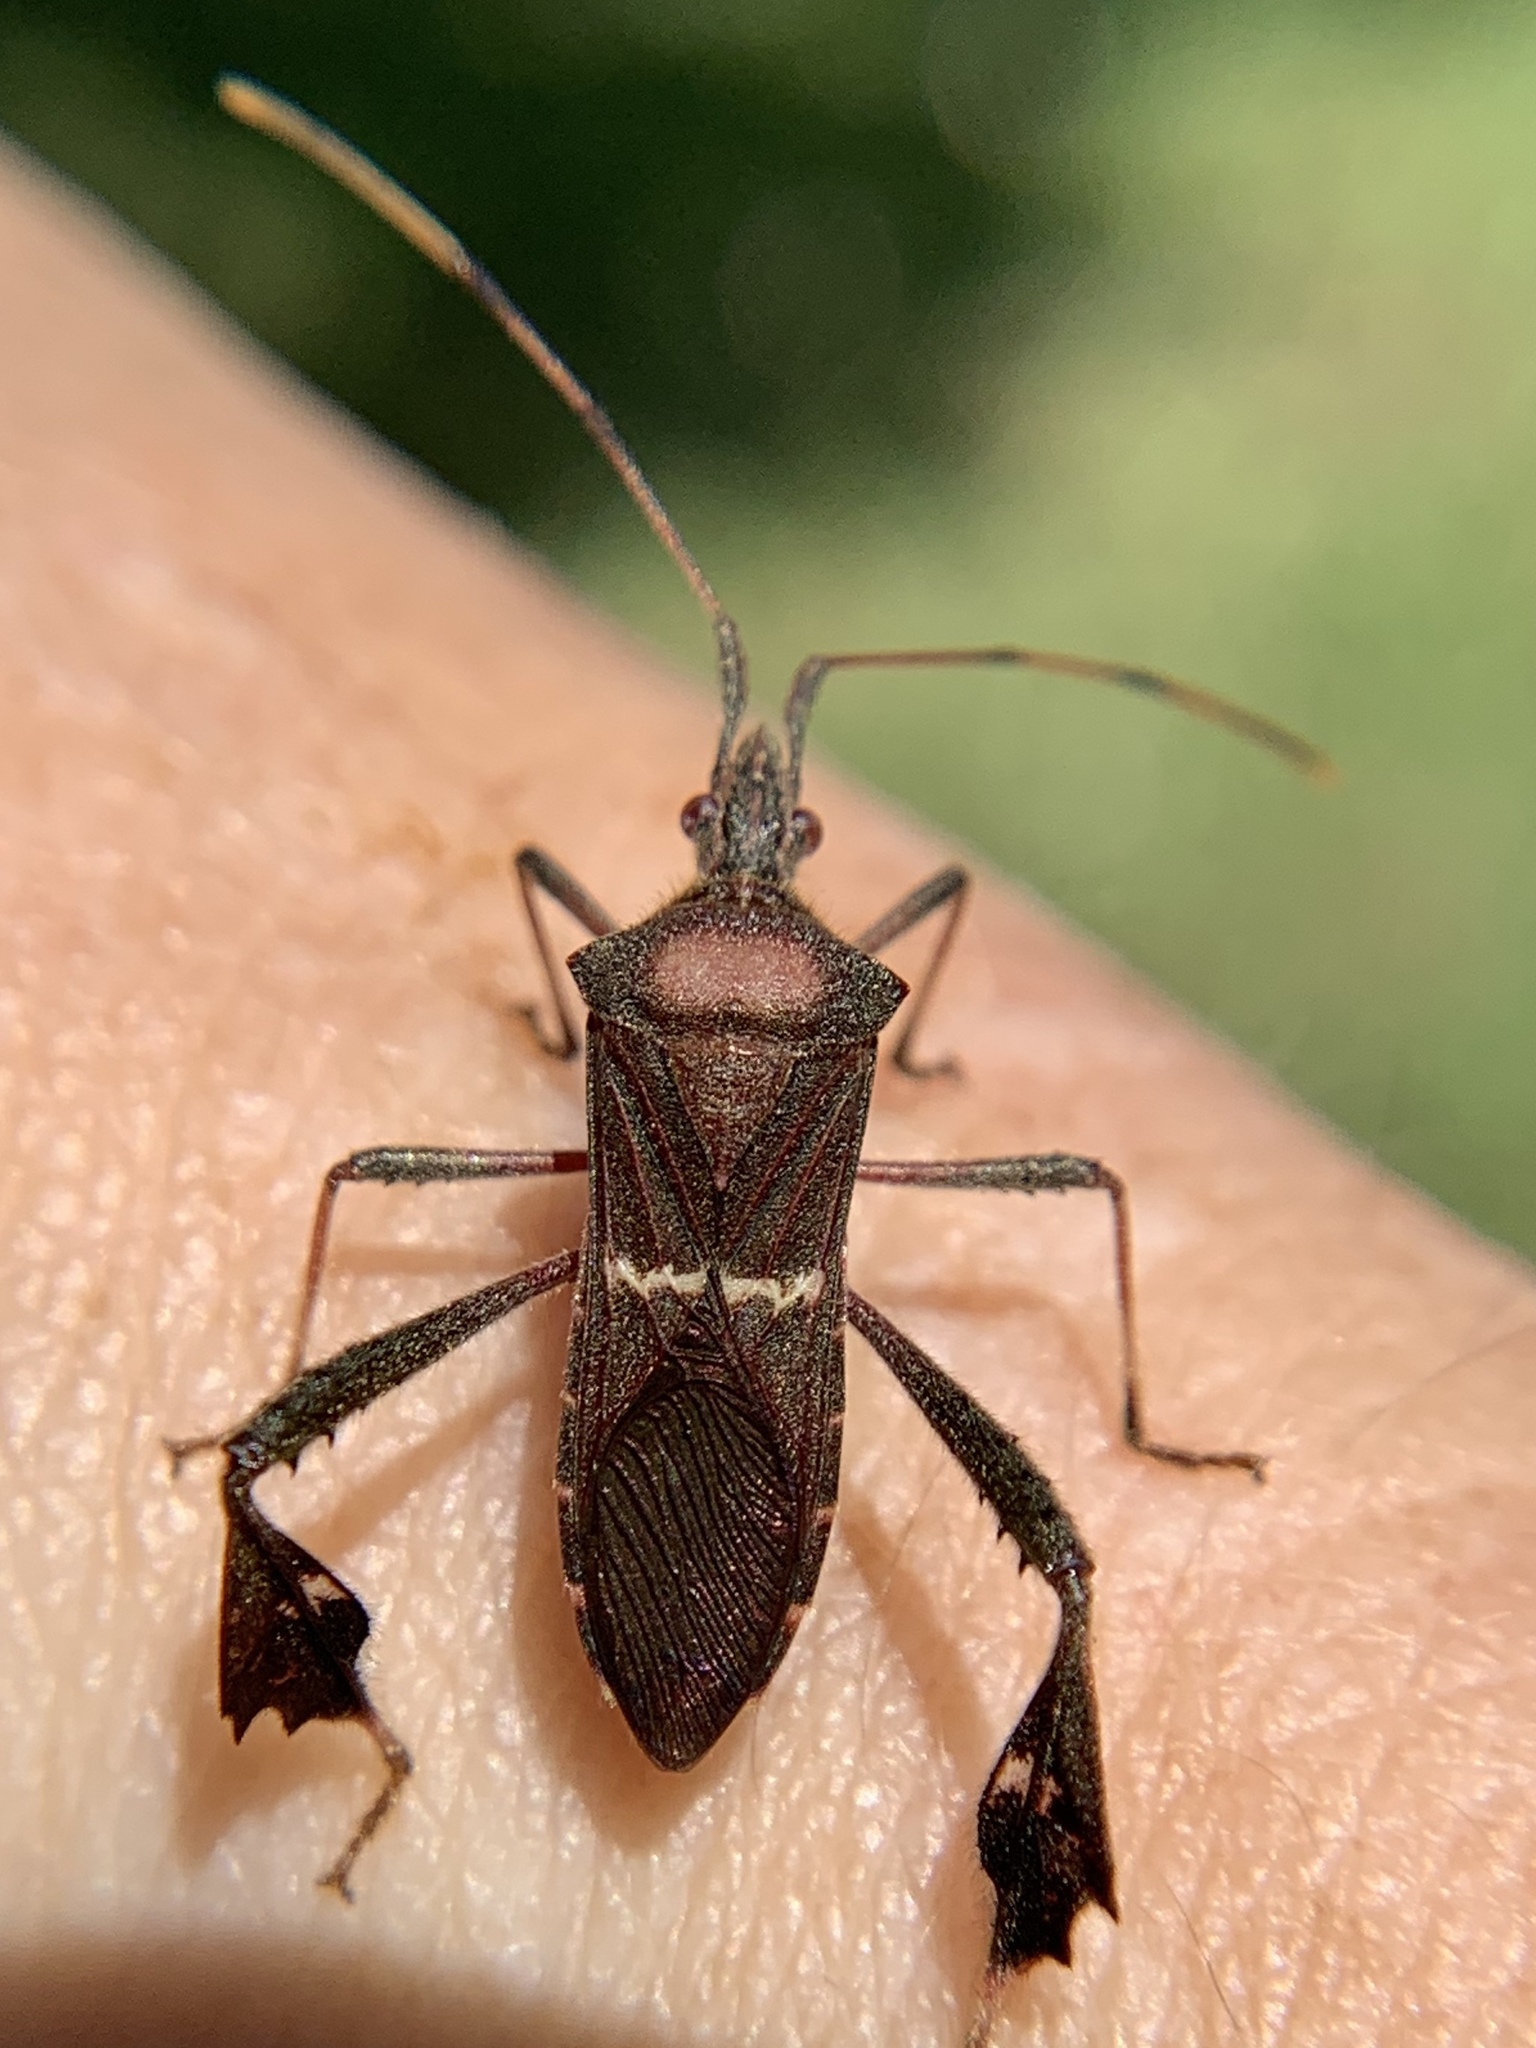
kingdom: Animalia
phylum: Arthropoda
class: Insecta
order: Hemiptera
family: Coreidae
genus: Leptoglossus
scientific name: Leptoglossus concolor
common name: Leaf-footed bug
